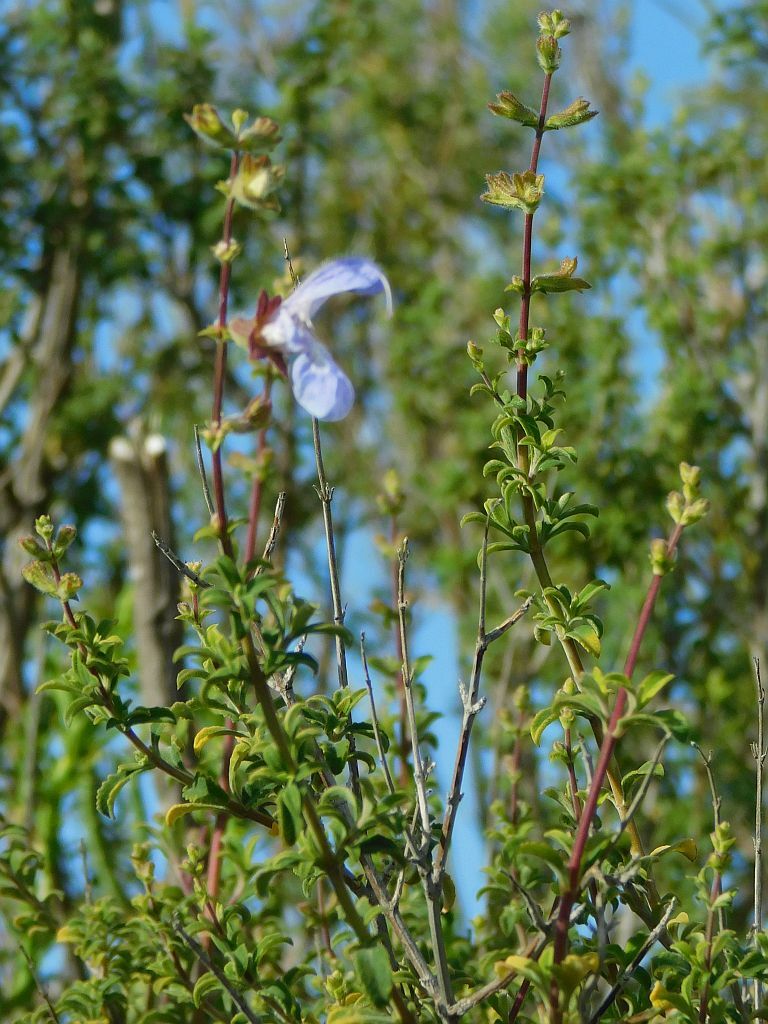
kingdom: Plantae
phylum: Tracheophyta
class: Magnoliopsida
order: Lamiales
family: Lamiaceae
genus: Salvia
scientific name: Salvia dentata
